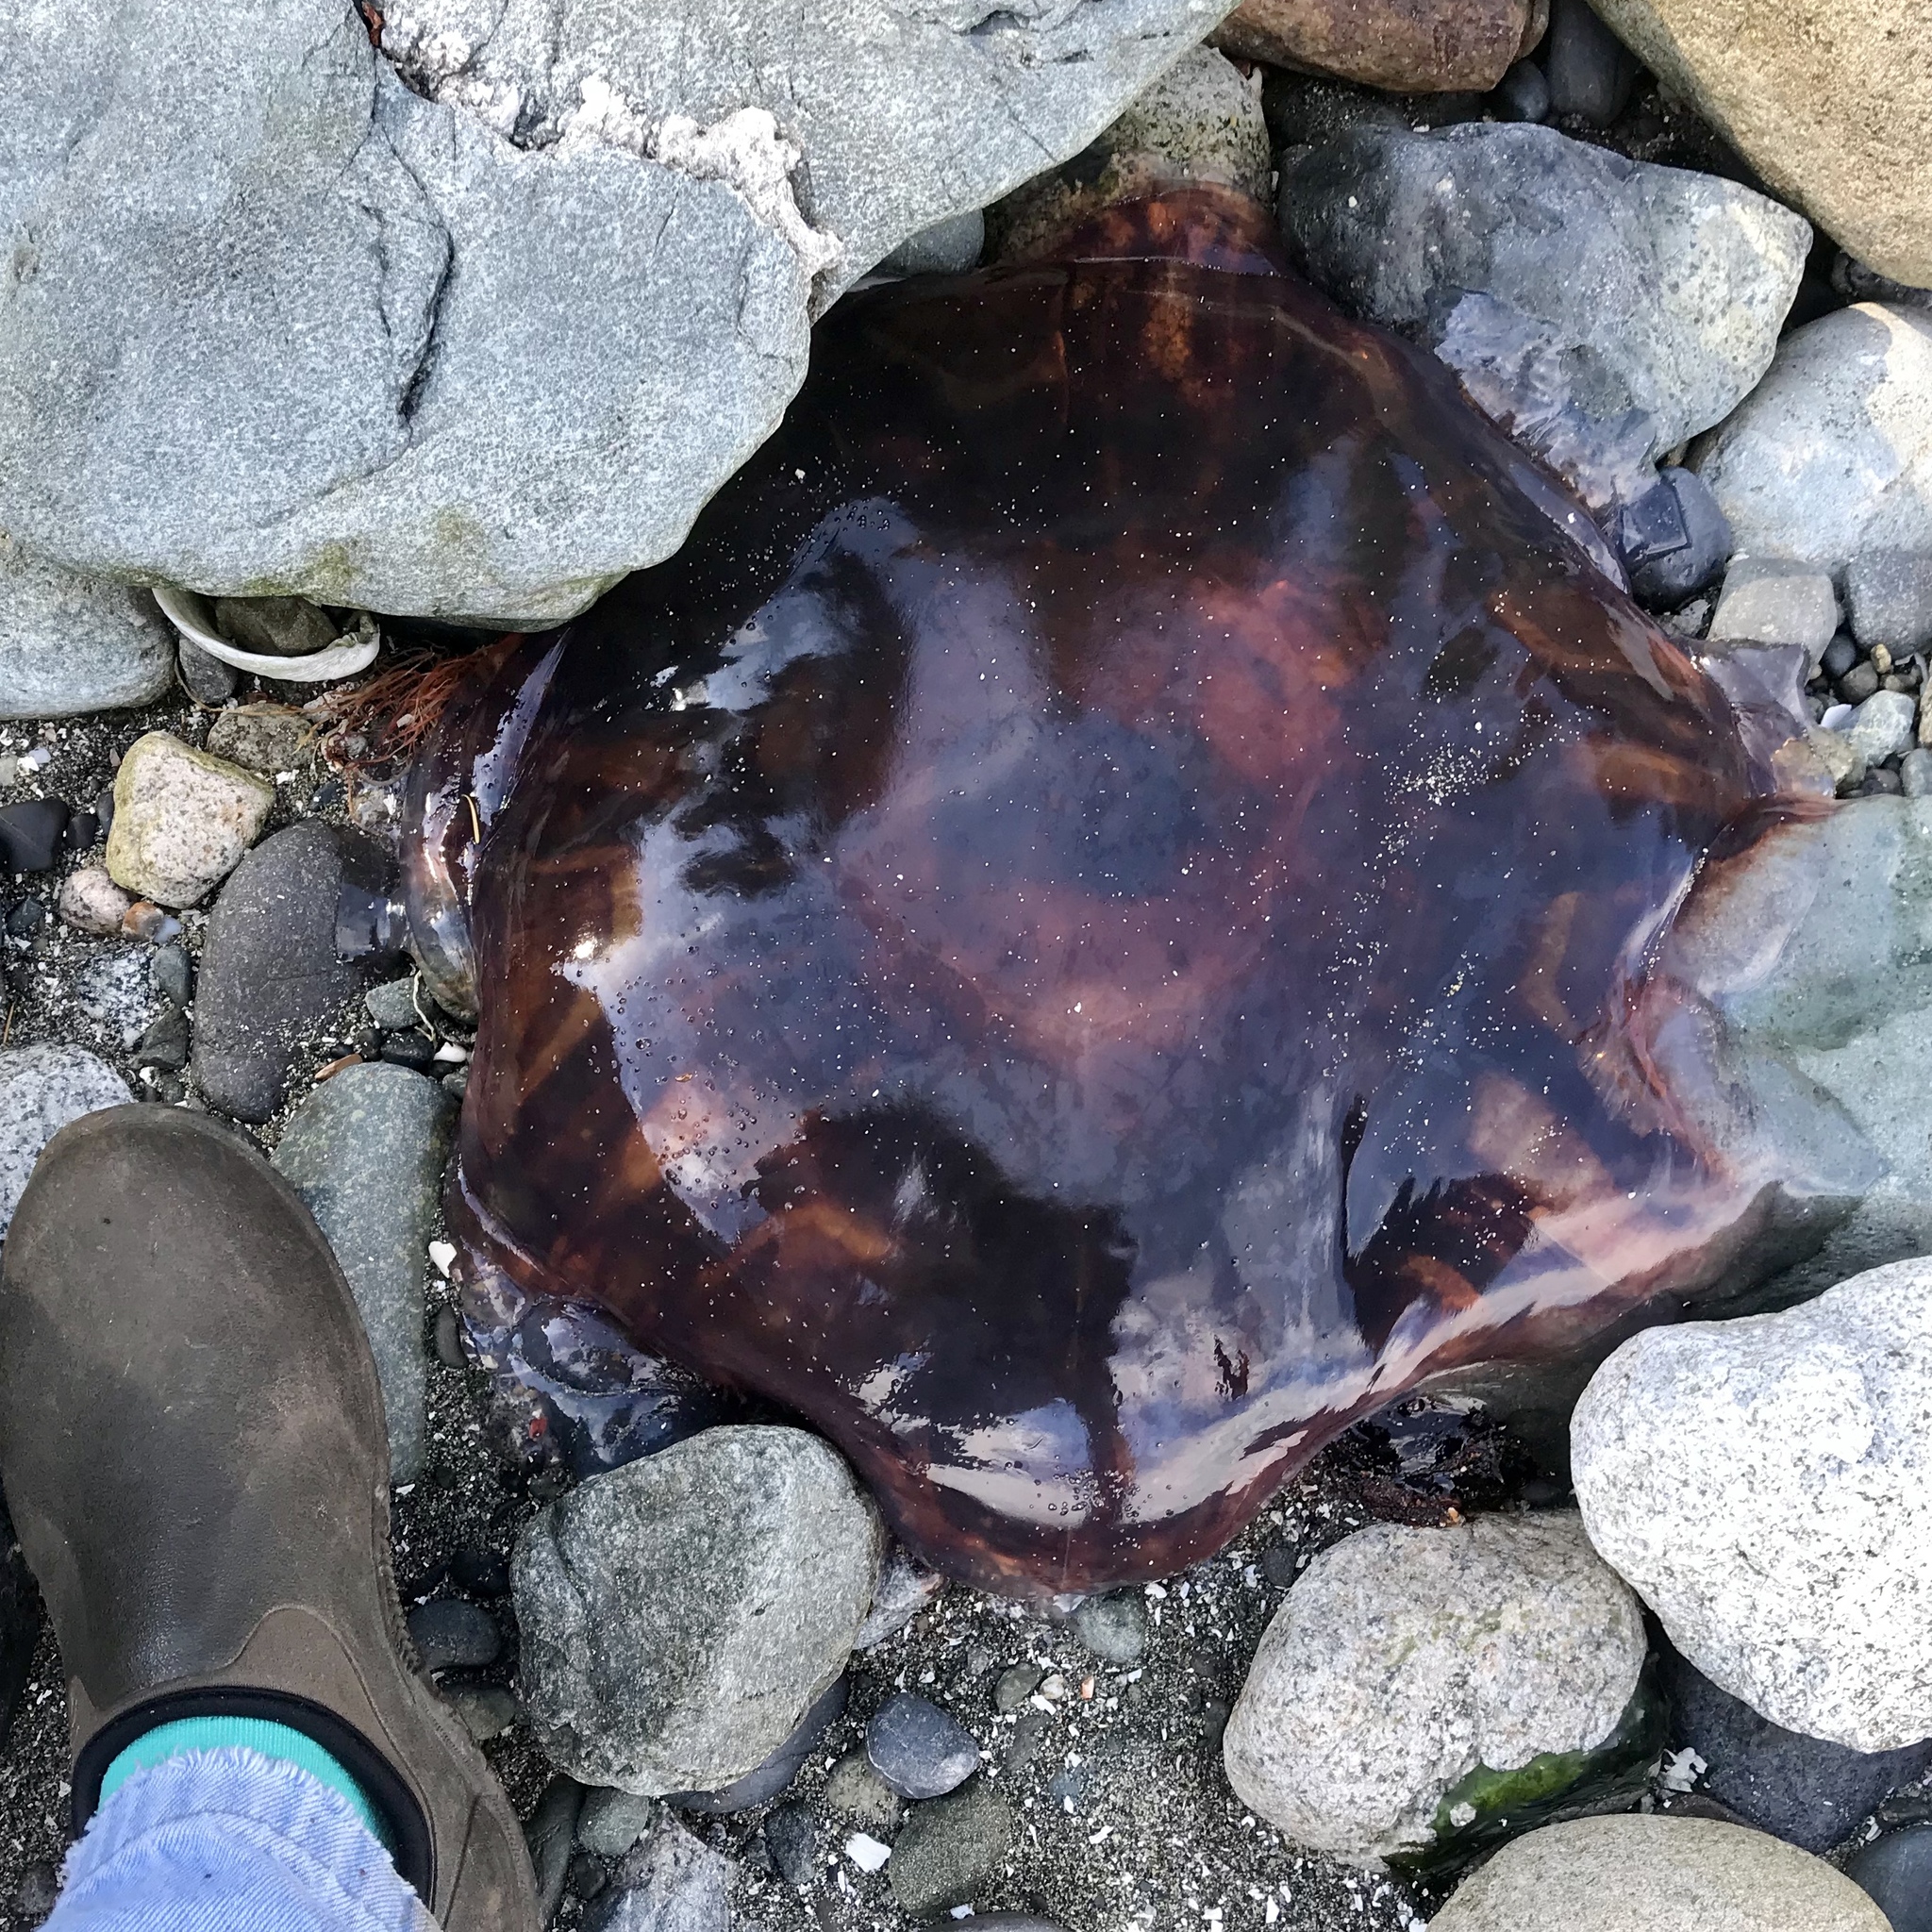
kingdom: Animalia
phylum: Cnidaria
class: Scyphozoa
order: Semaeostomeae
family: Cyaneidae
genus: Cyanea
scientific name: Cyanea ferruginea
